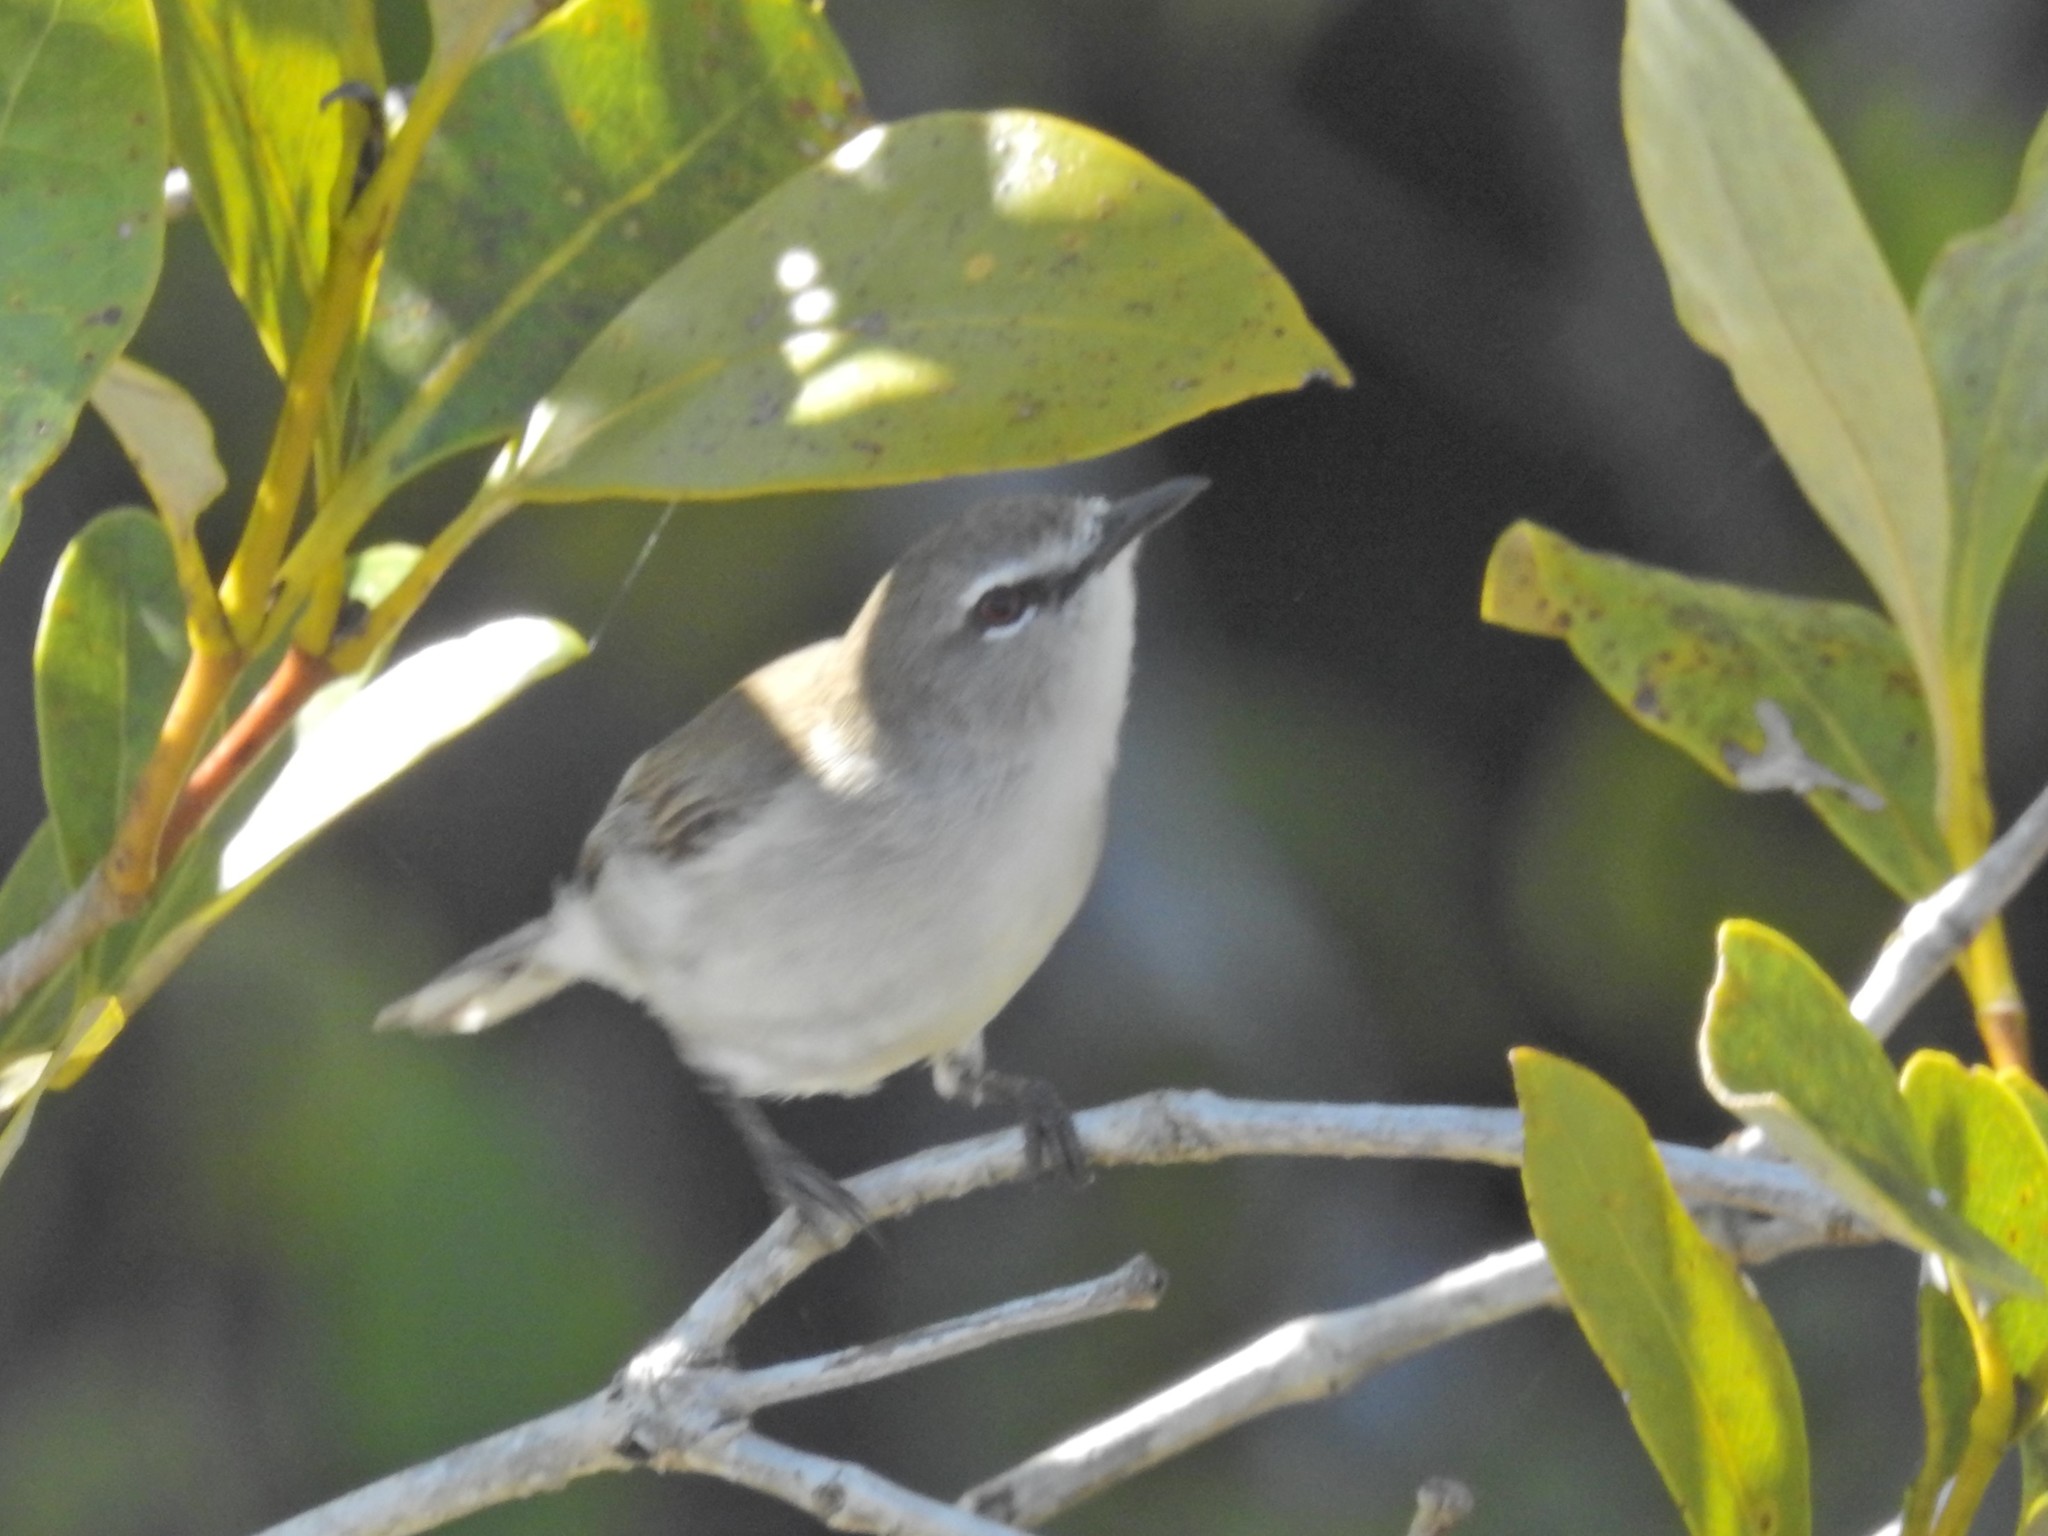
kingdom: Animalia
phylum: Chordata
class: Aves
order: Passeriformes
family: Acanthizidae
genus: Gerygone
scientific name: Gerygone levigaster
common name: Mangrove gerygone
